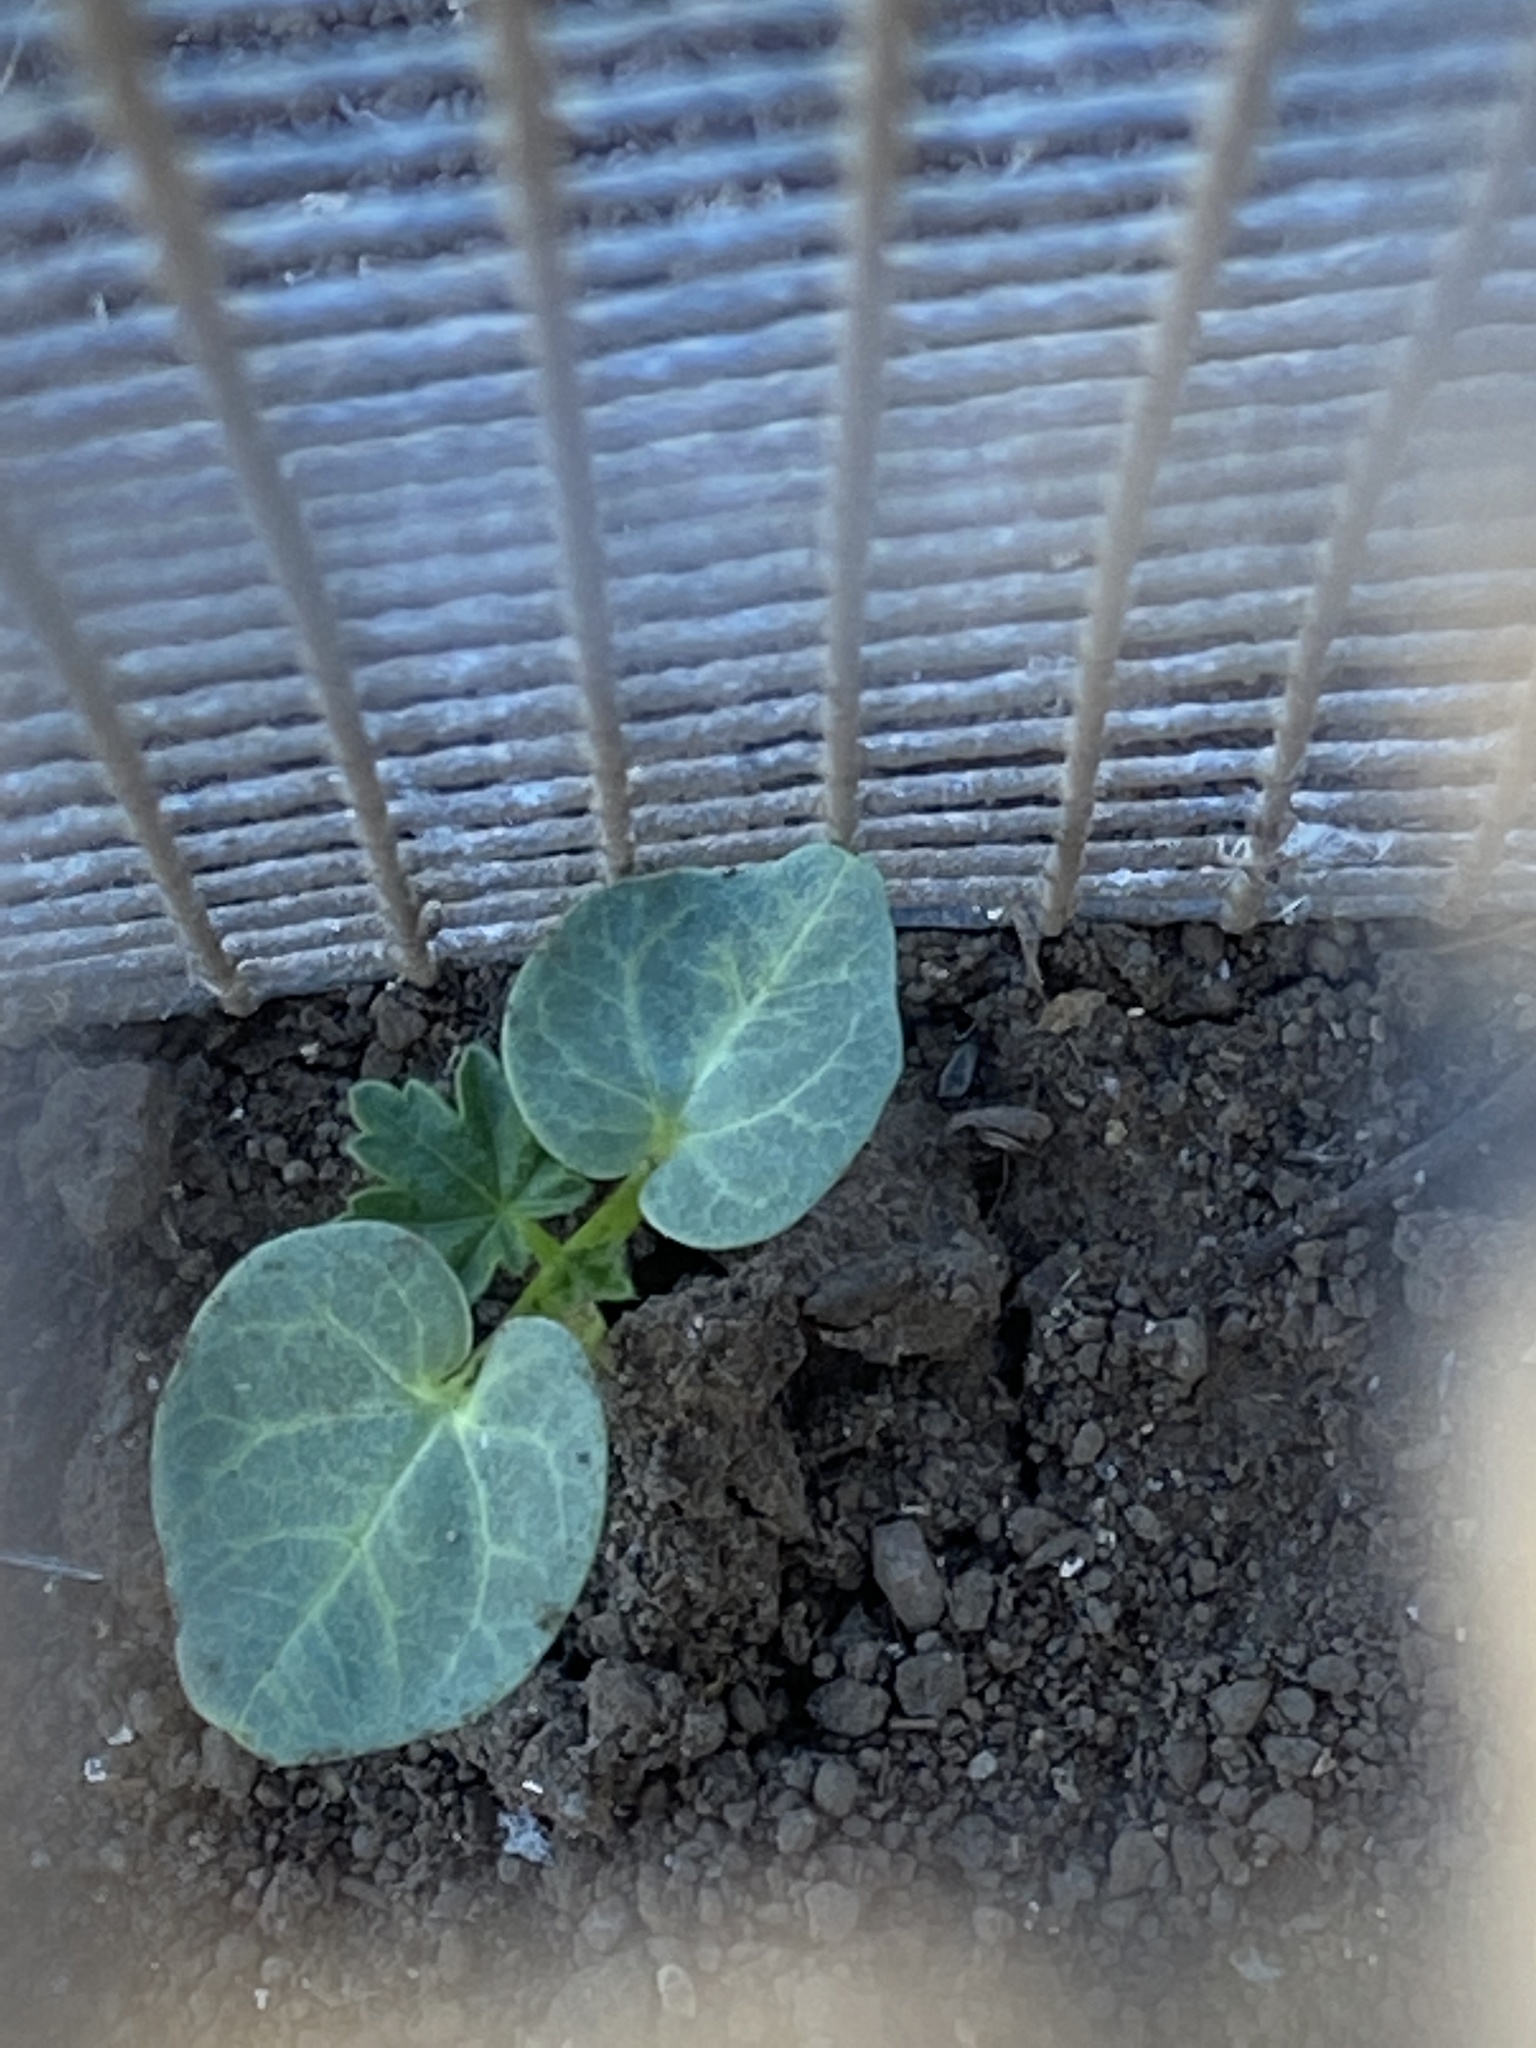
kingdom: Plantae
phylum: Tracheophyta
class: Magnoliopsida
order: Malvales
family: Malvaceae
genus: Malva
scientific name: Malva assurgentiflora
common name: Island mallow
